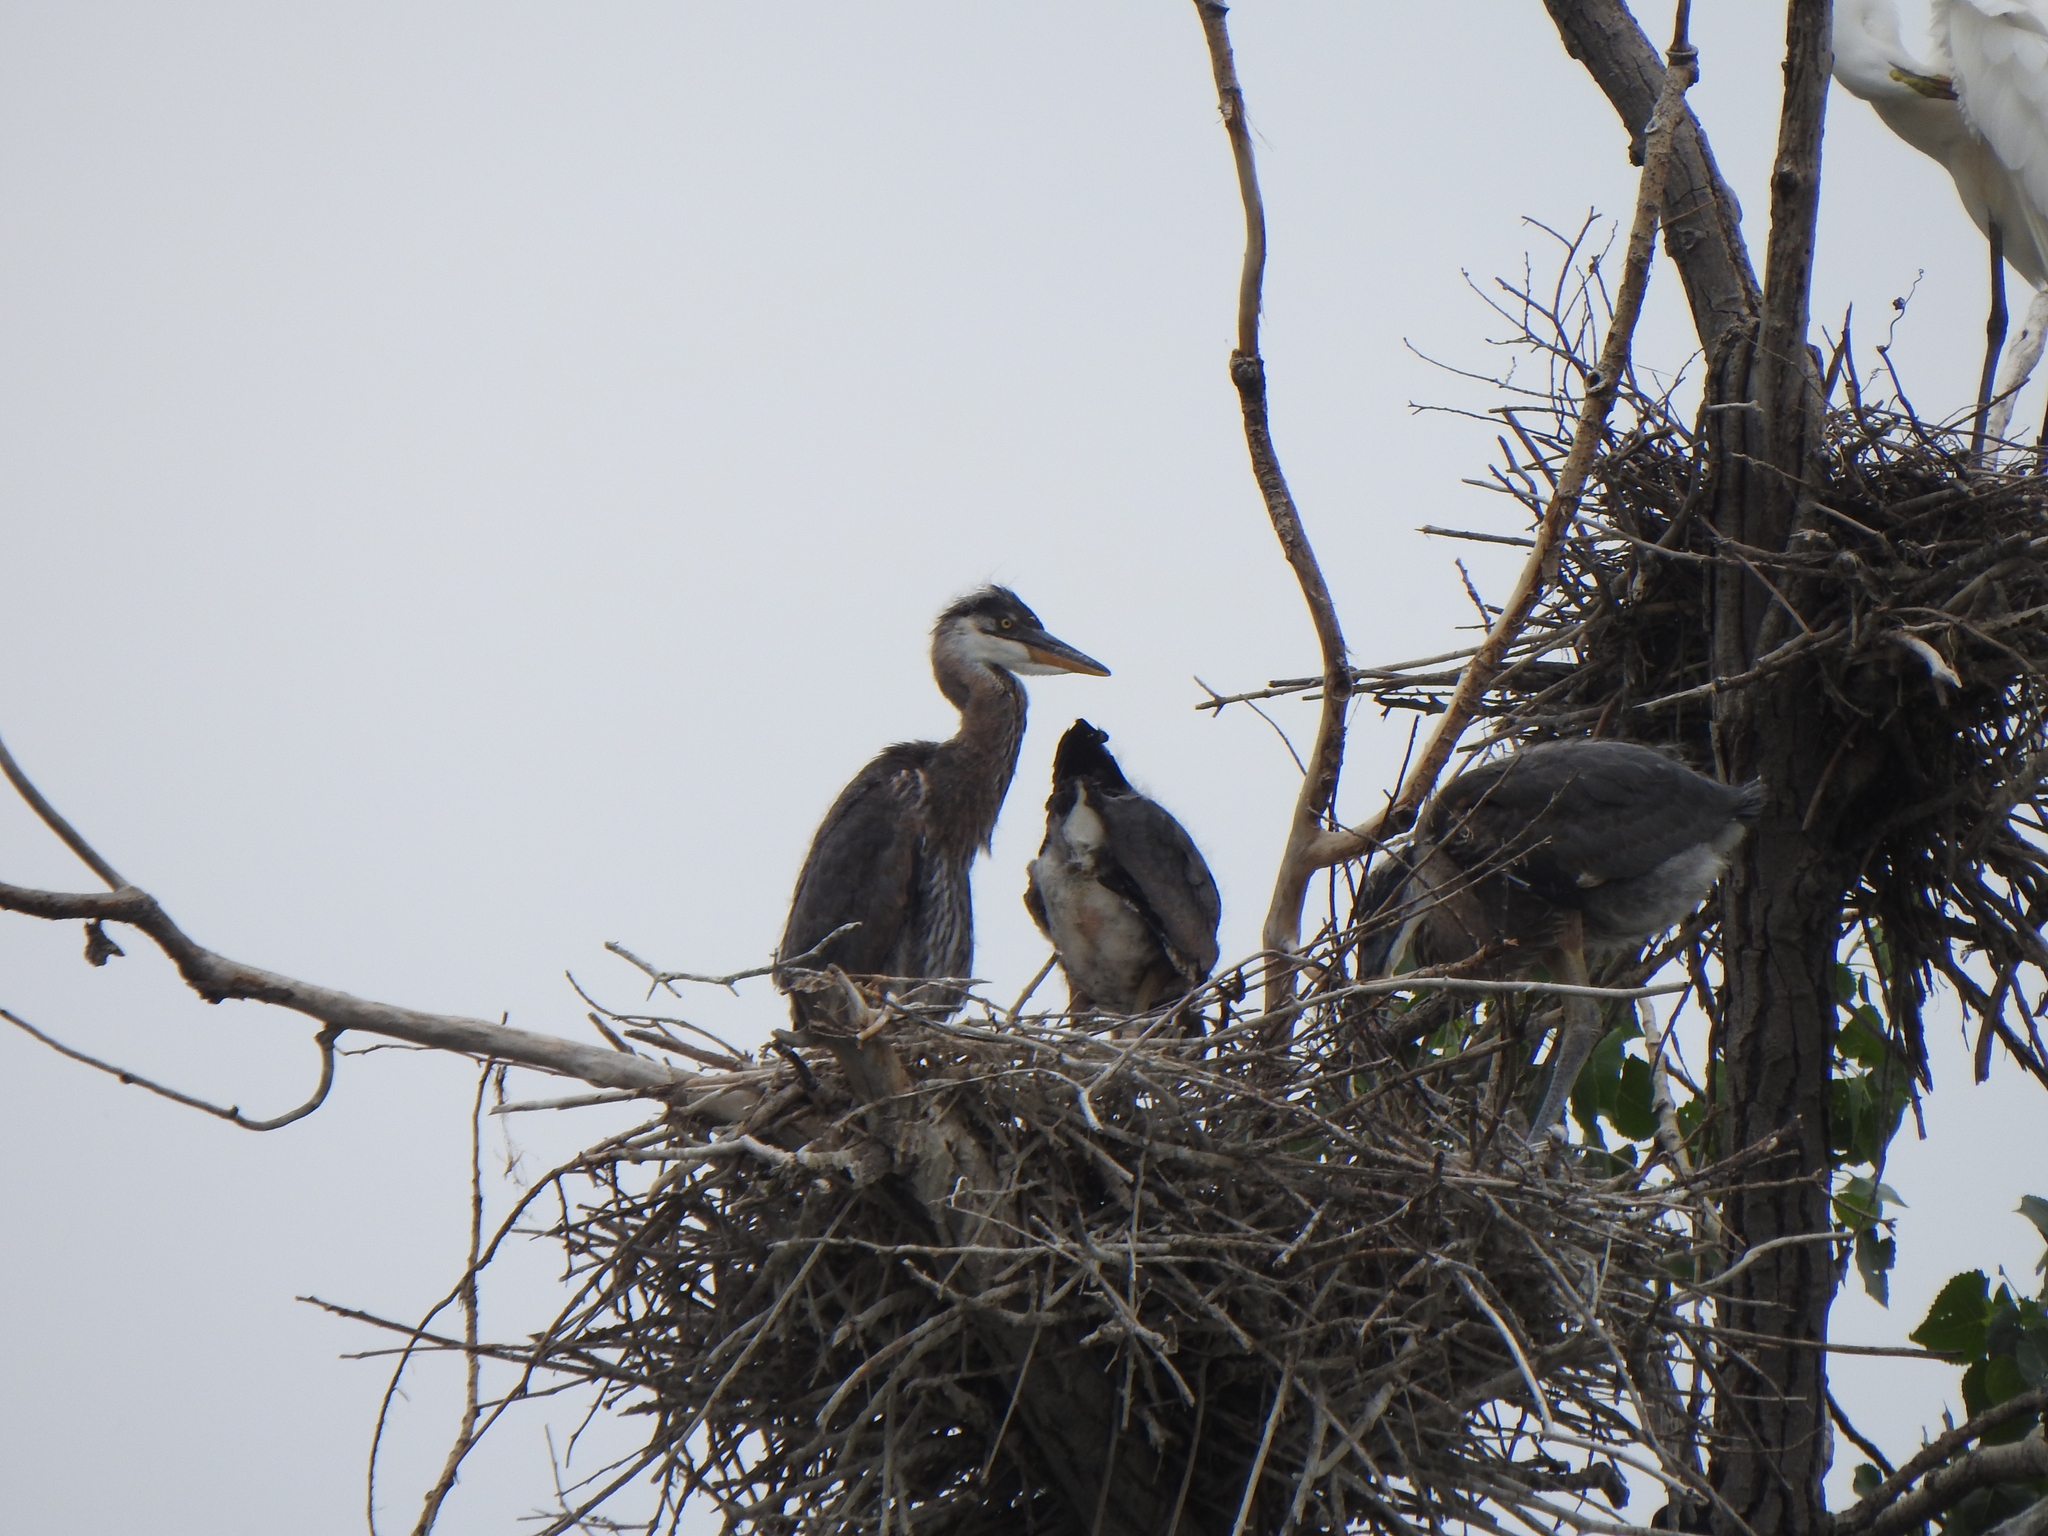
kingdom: Animalia
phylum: Chordata
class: Aves
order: Pelecaniformes
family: Ardeidae
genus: Ardea
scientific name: Ardea herodias
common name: Great blue heron
